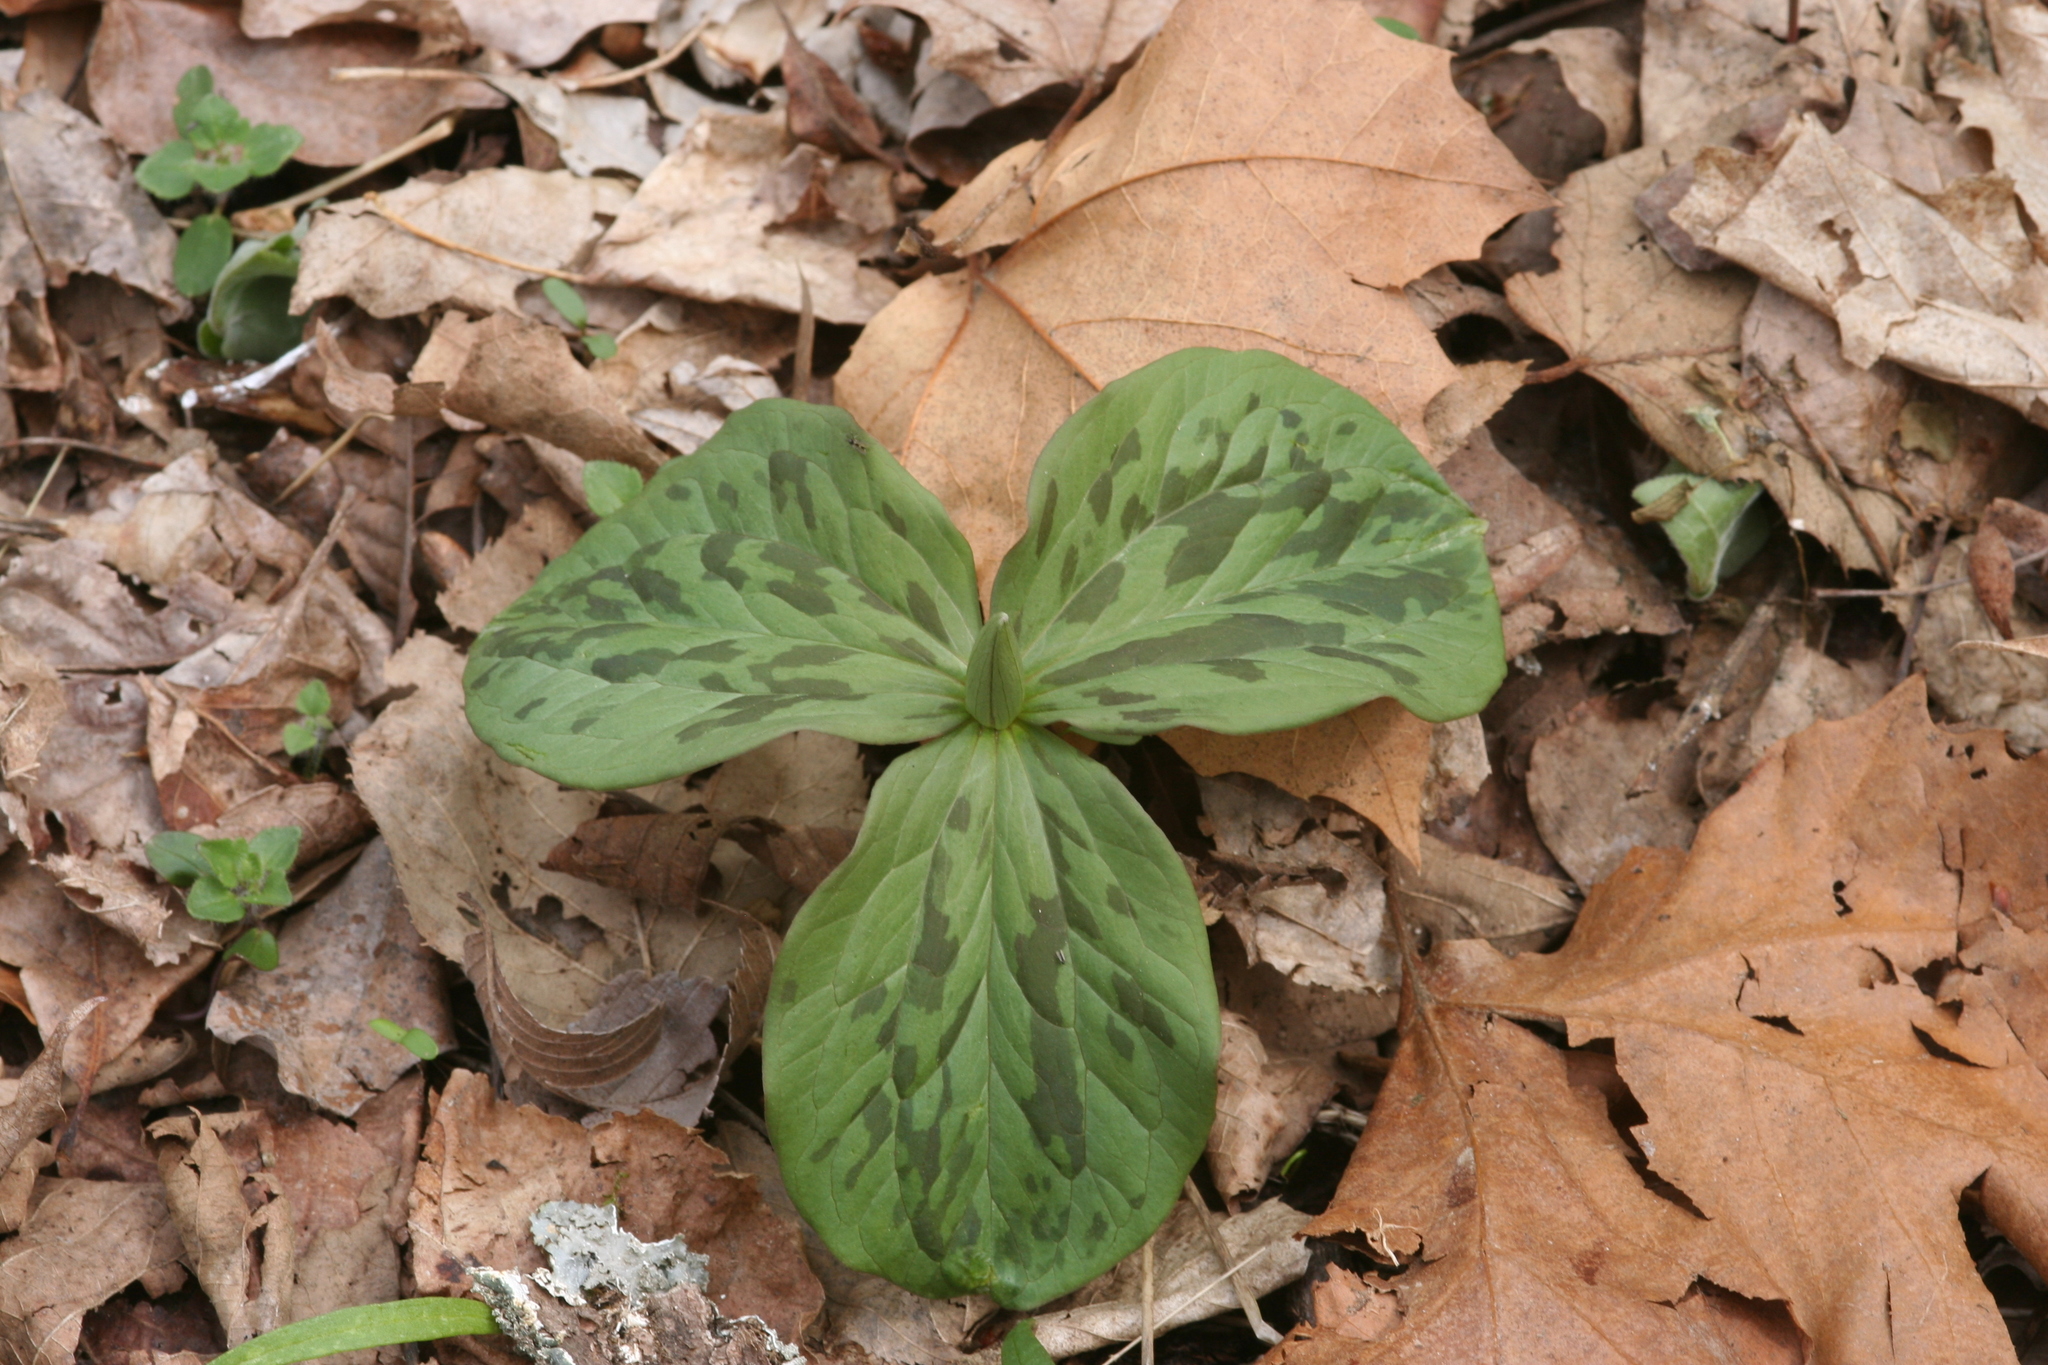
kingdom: Plantae
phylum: Tracheophyta
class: Liliopsida
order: Liliales
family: Melanthiaceae
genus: Trillium
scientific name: Trillium sessile
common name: Sessile trillium
